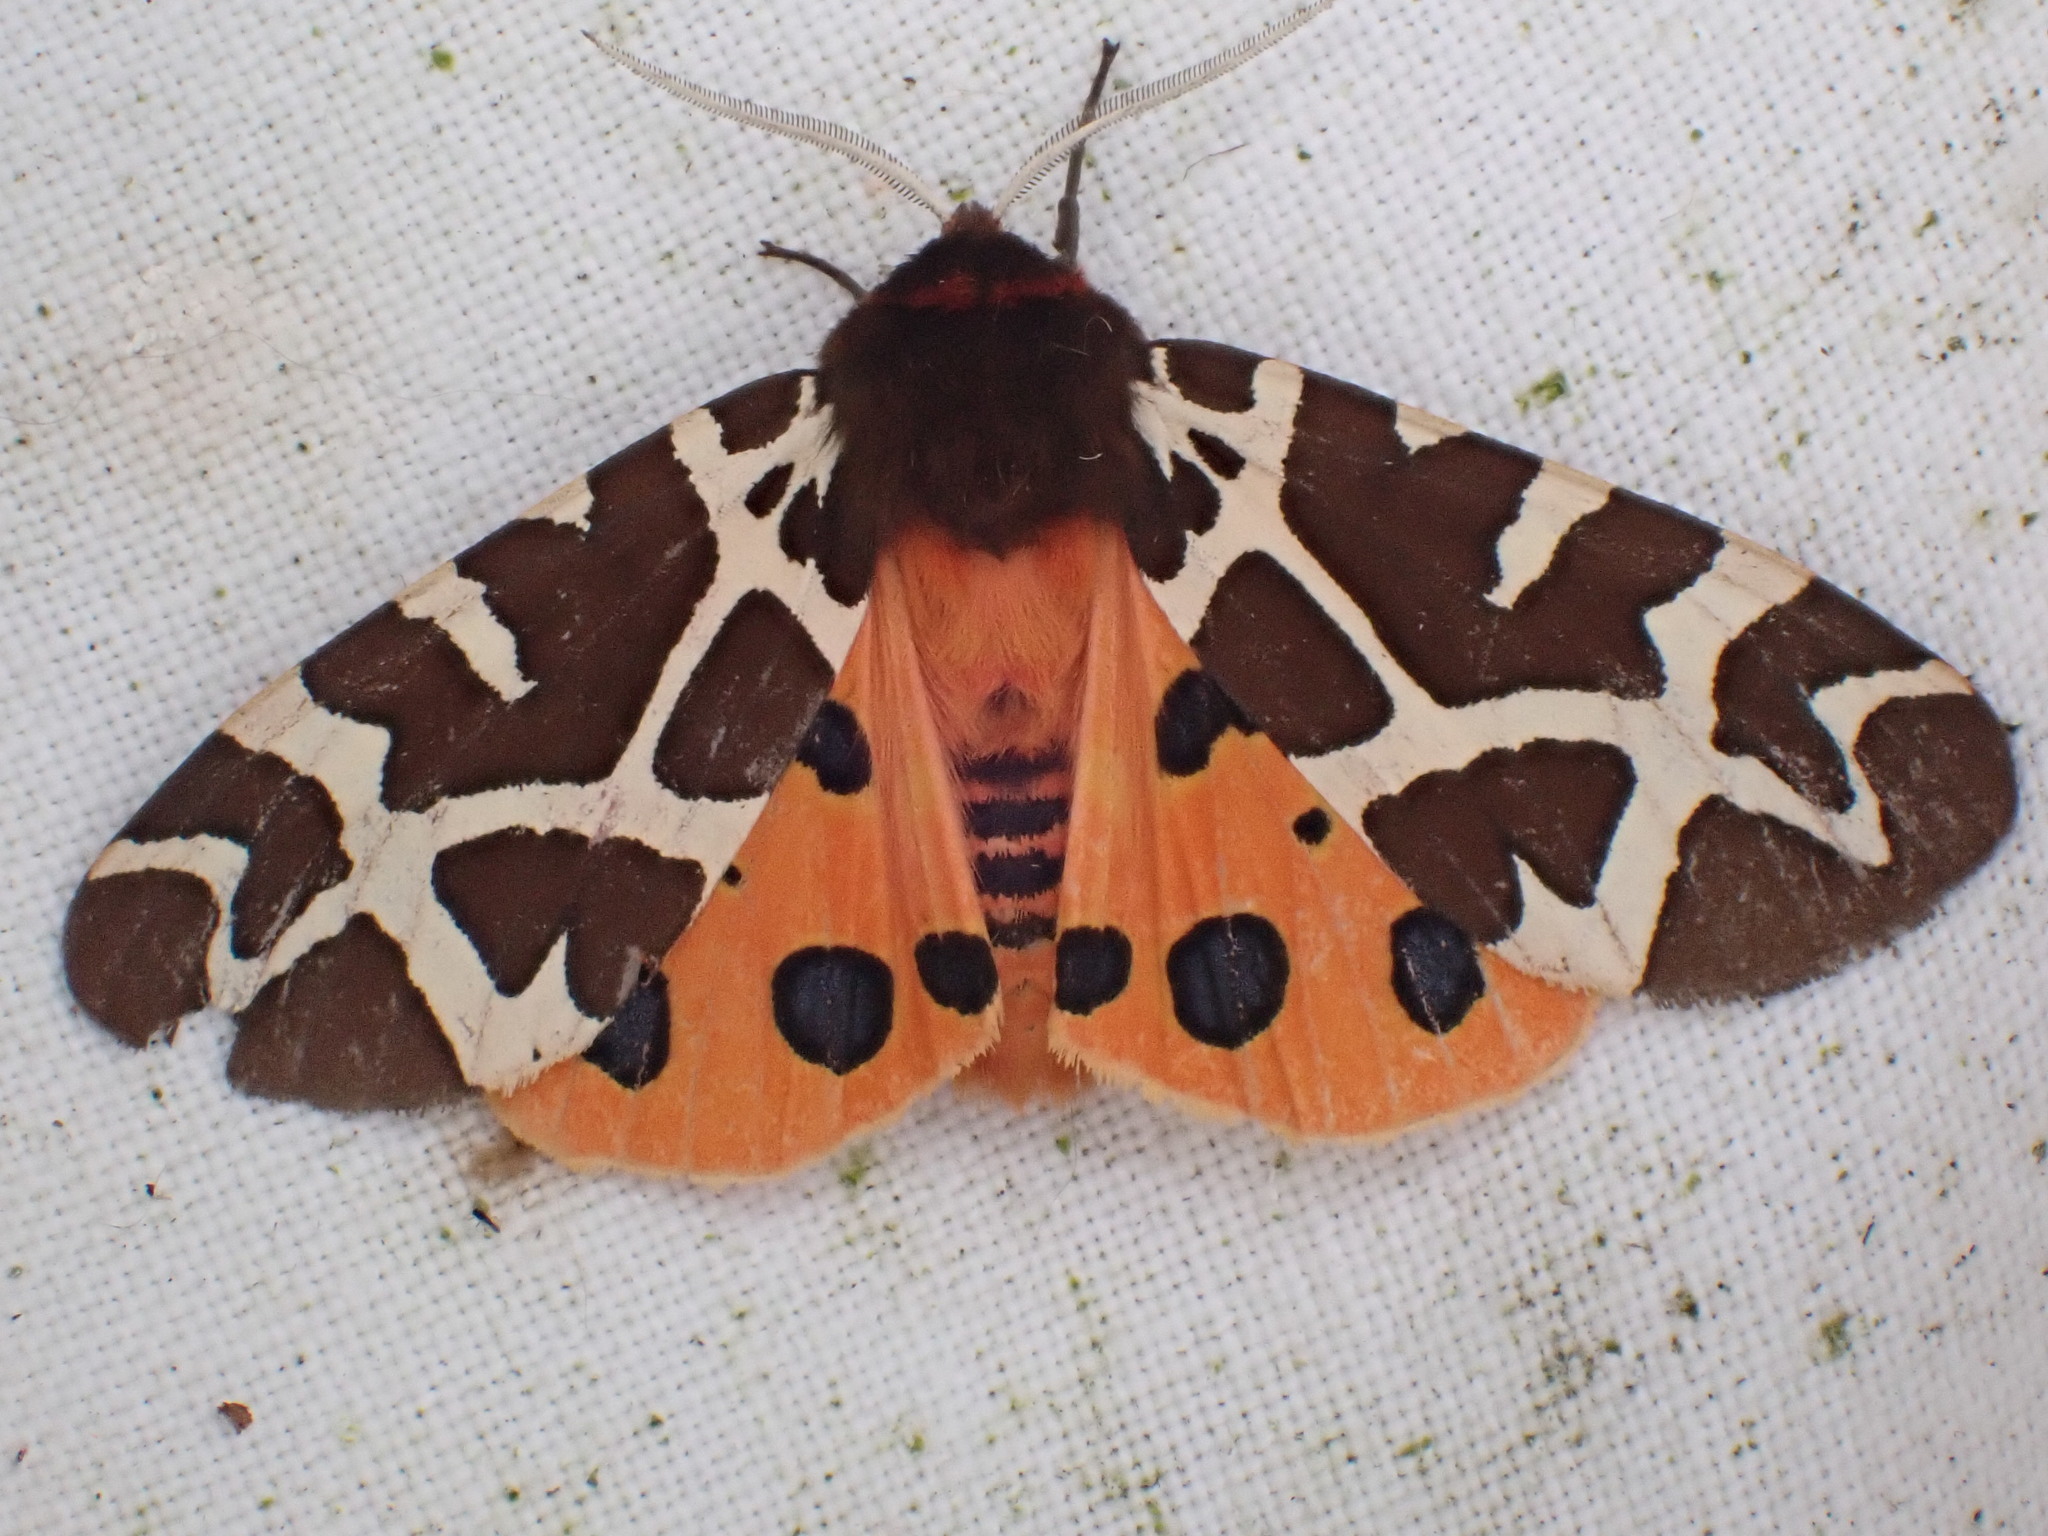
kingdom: Animalia
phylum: Arthropoda
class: Insecta
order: Lepidoptera
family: Erebidae
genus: Arctia
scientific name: Arctia caja
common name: Garden tiger
